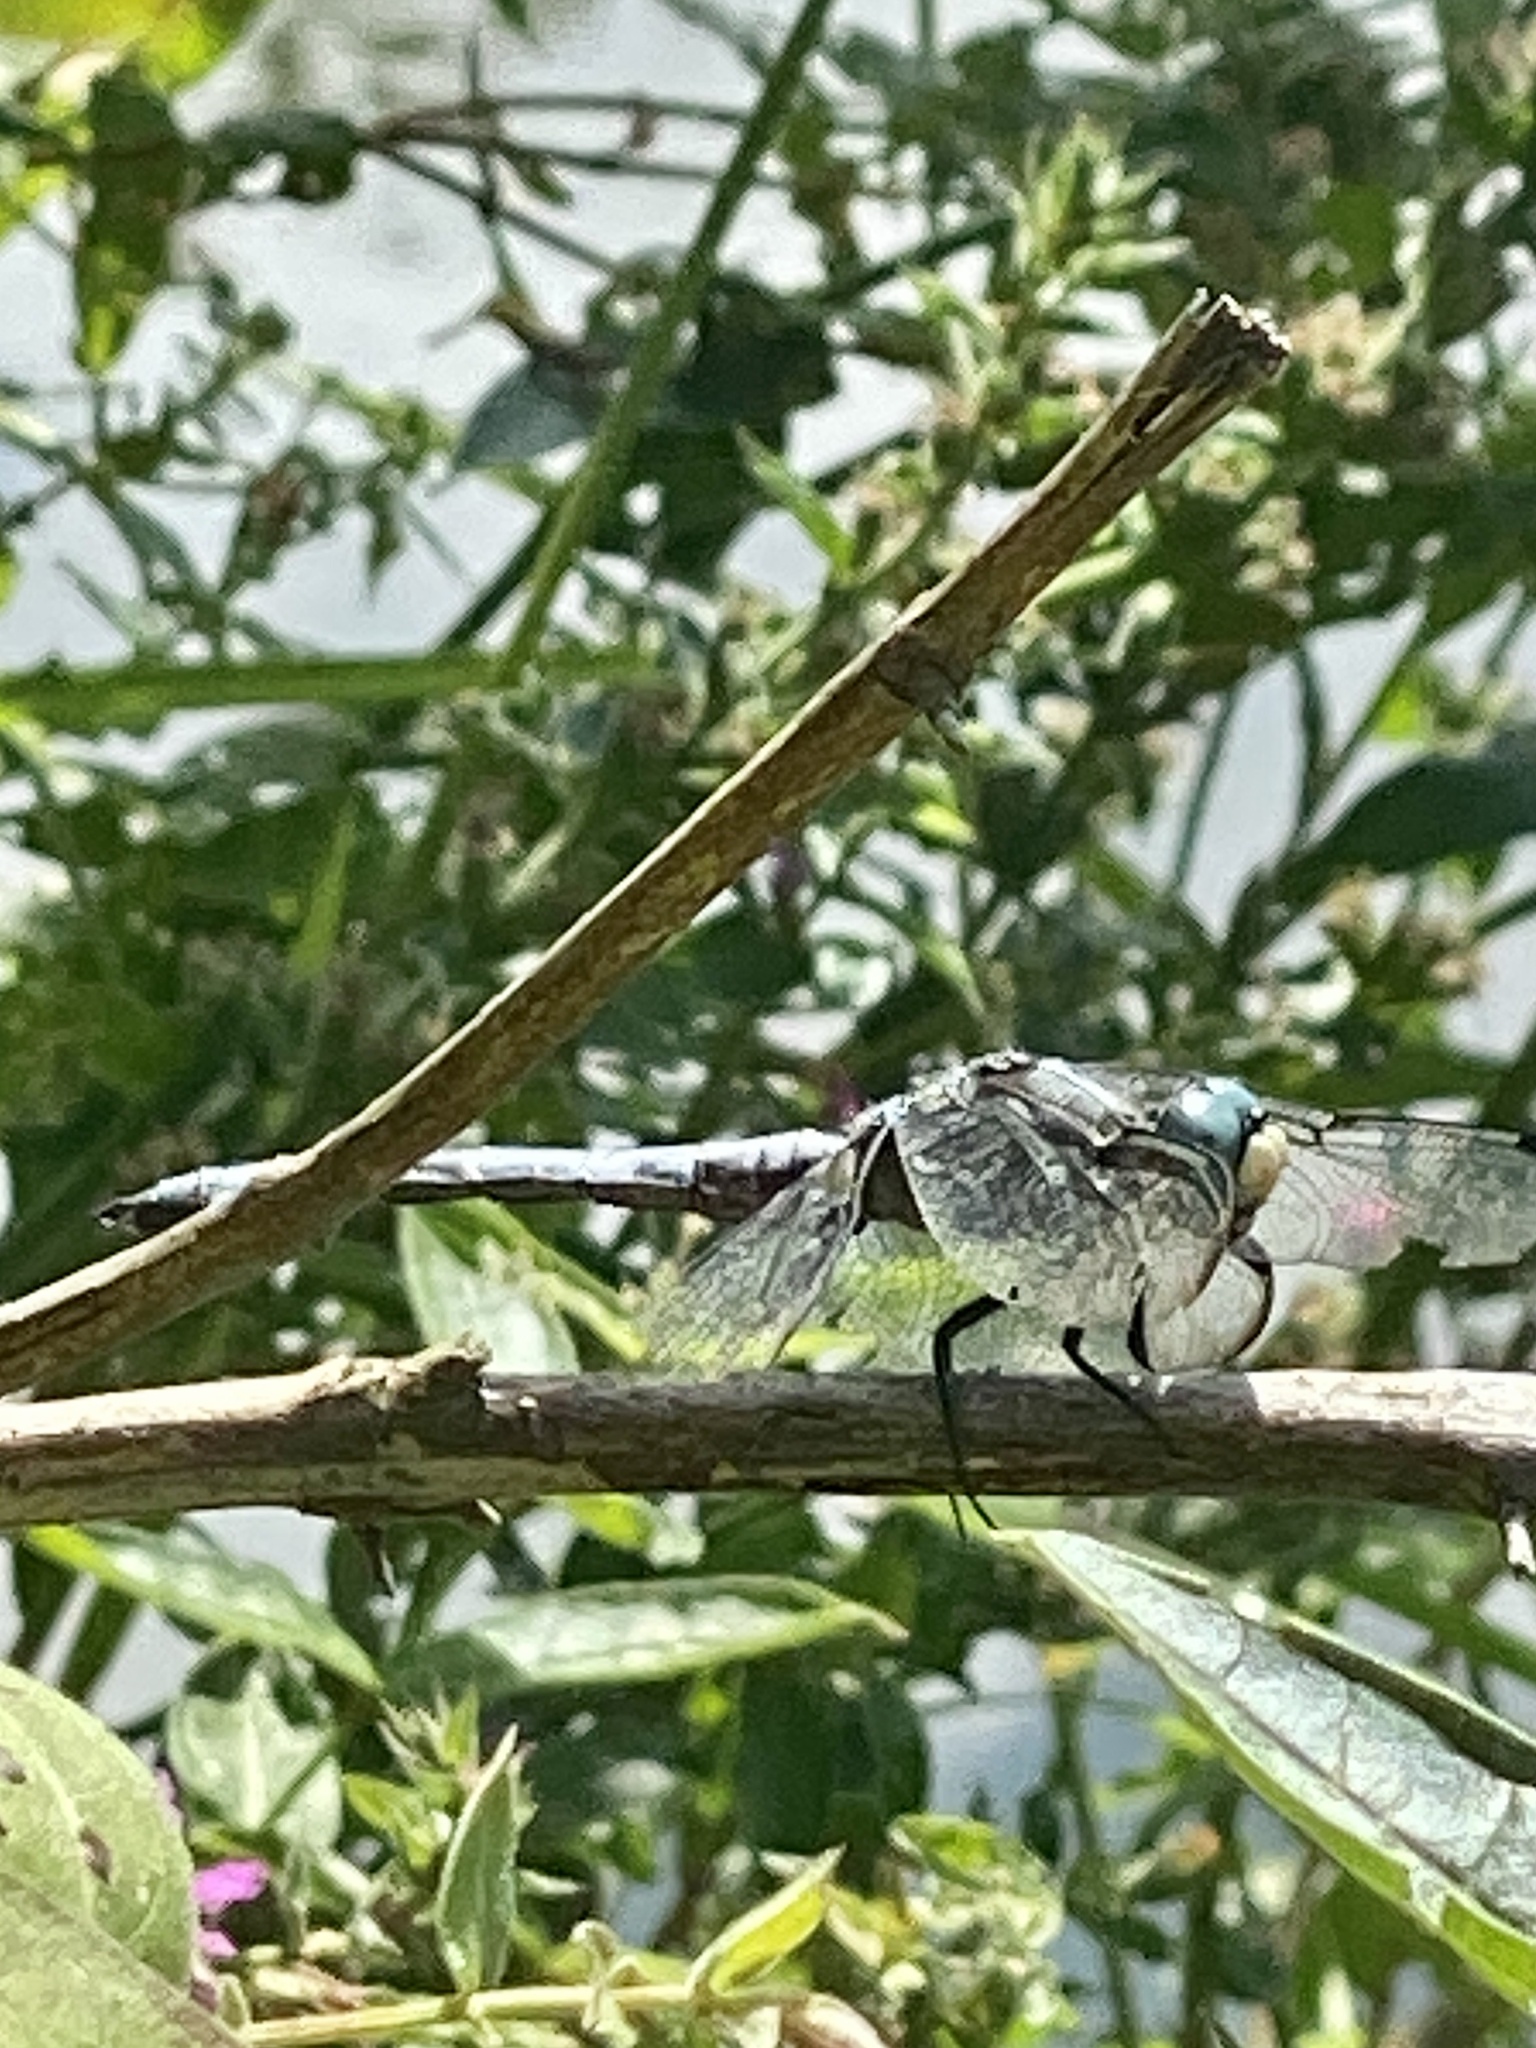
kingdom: Animalia
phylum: Arthropoda
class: Insecta
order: Odonata
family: Libellulidae
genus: Libellula
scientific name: Libellula vibrans
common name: Great blue skimmer
